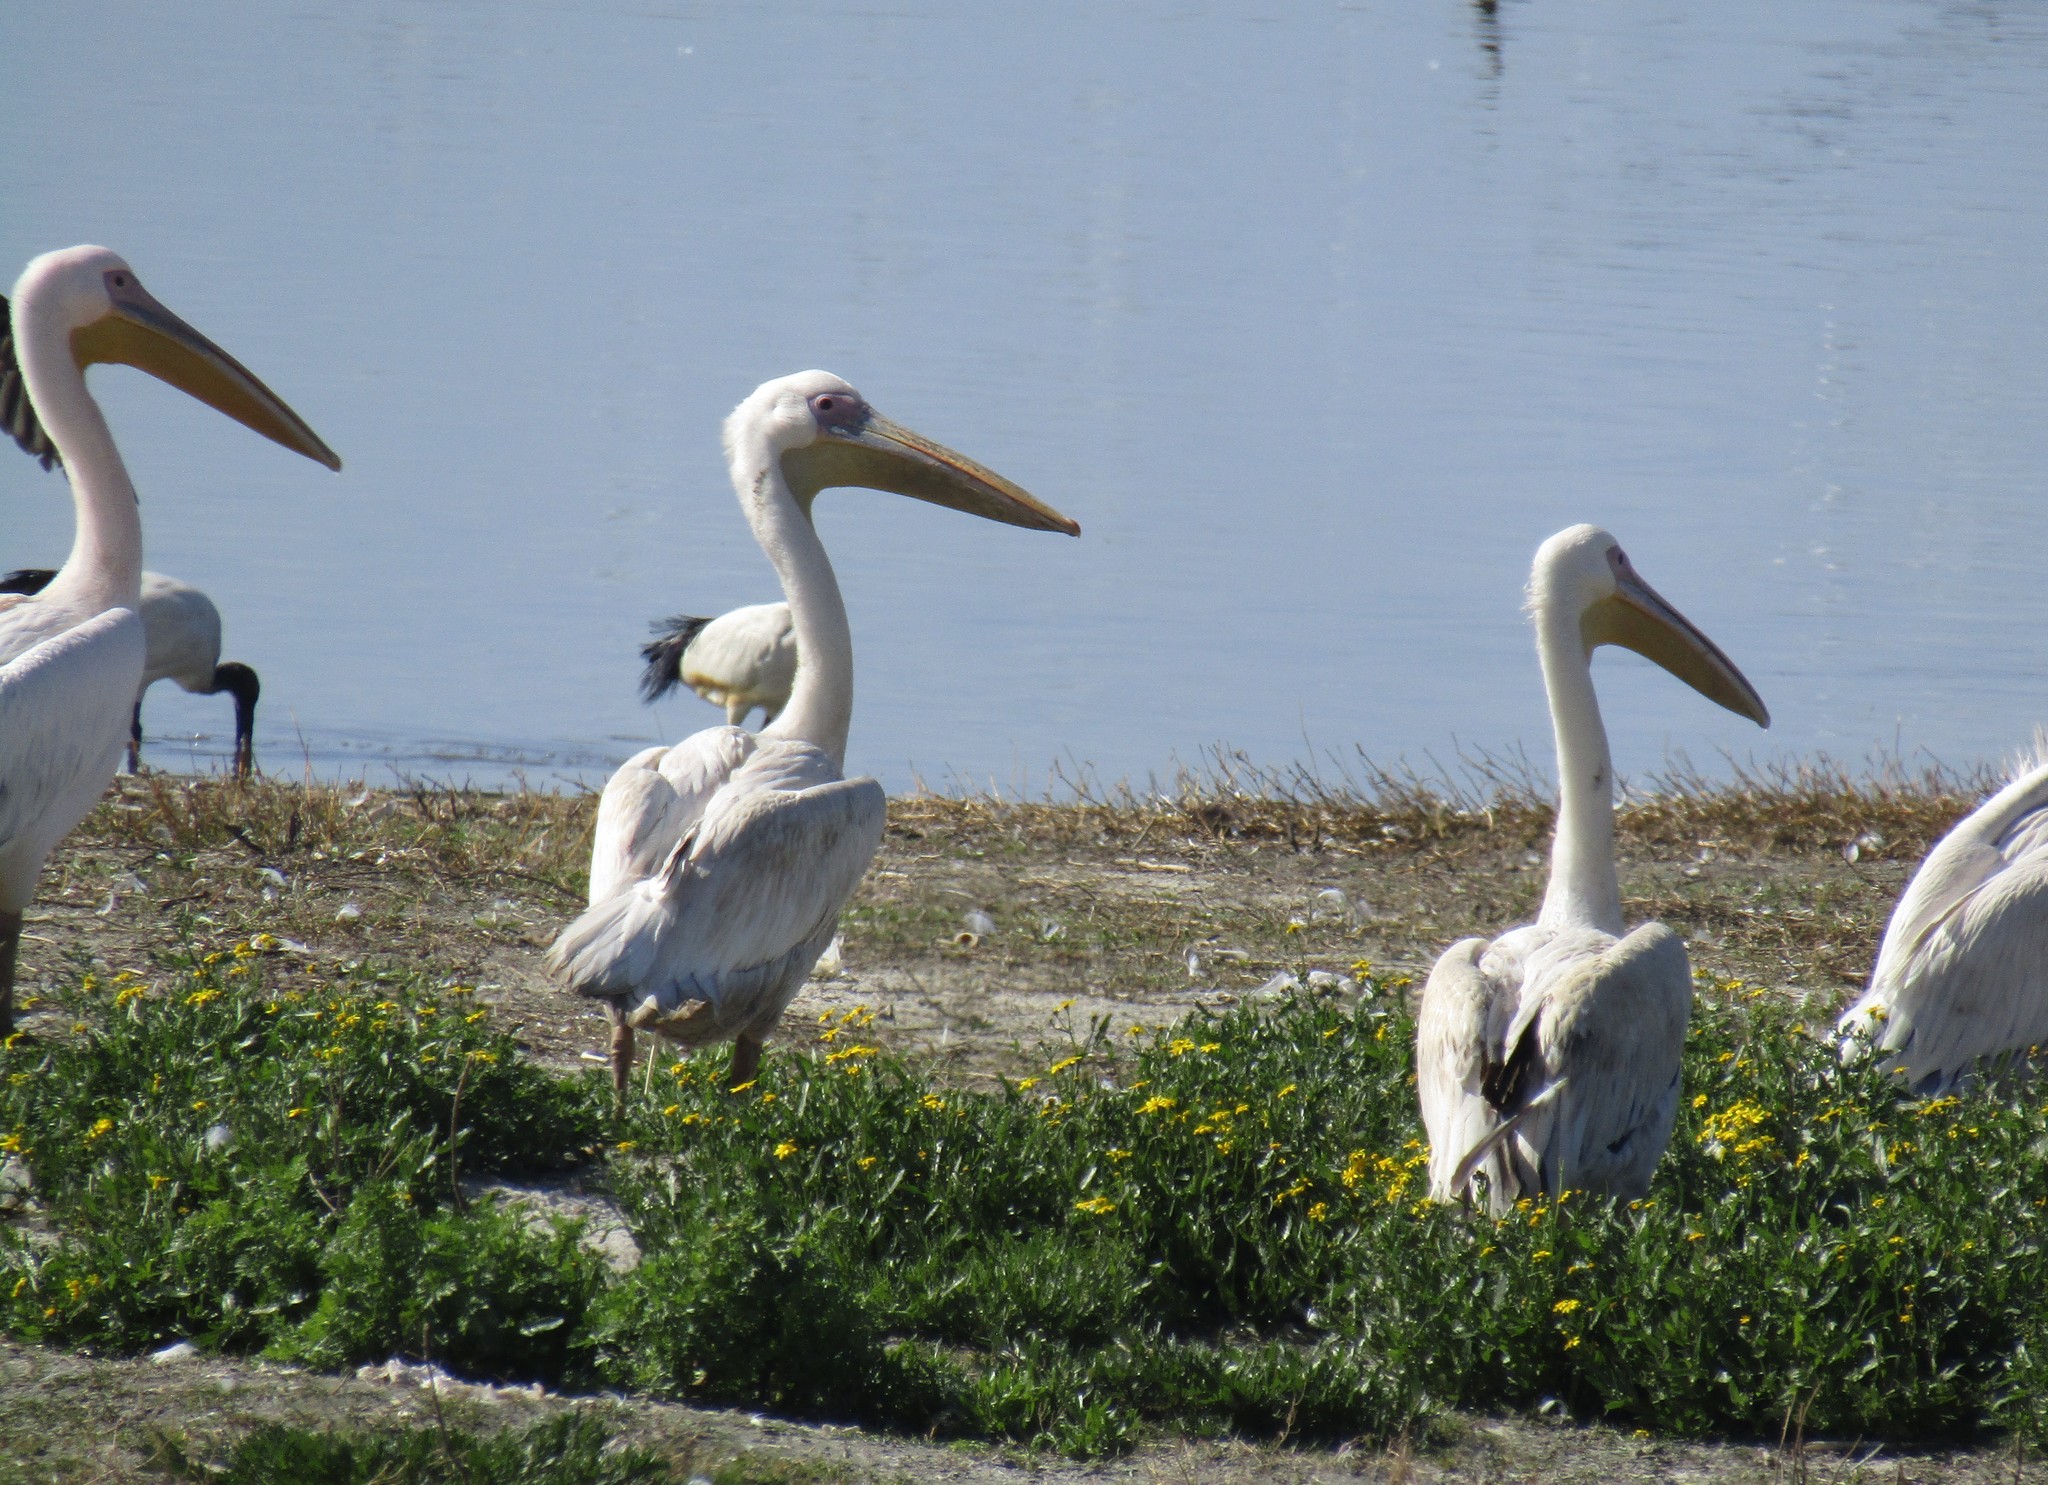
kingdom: Animalia
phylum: Chordata
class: Aves
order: Pelecaniformes
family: Pelecanidae
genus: Pelecanus
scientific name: Pelecanus onocrotalus
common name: Great white pelican
